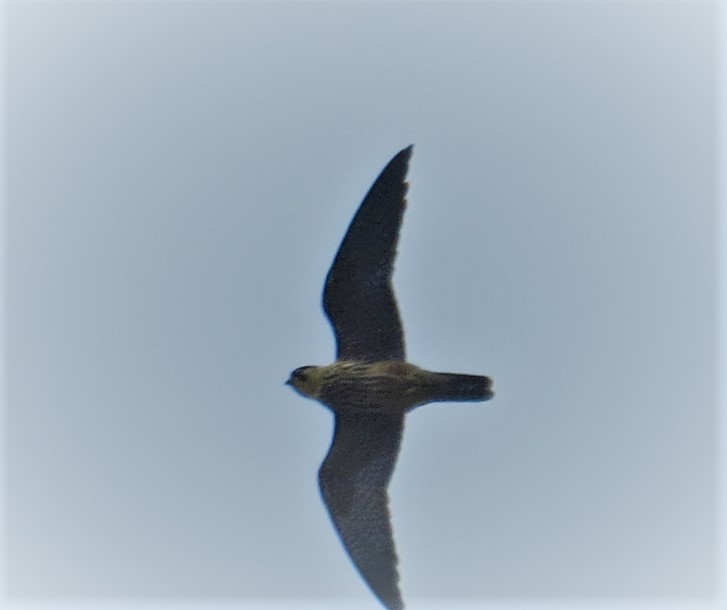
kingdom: Animalia
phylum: Chordata
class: Aves
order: Falconiformes
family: Falconidae
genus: Falco
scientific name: Falco subbuteo
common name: Eurasian hobby
